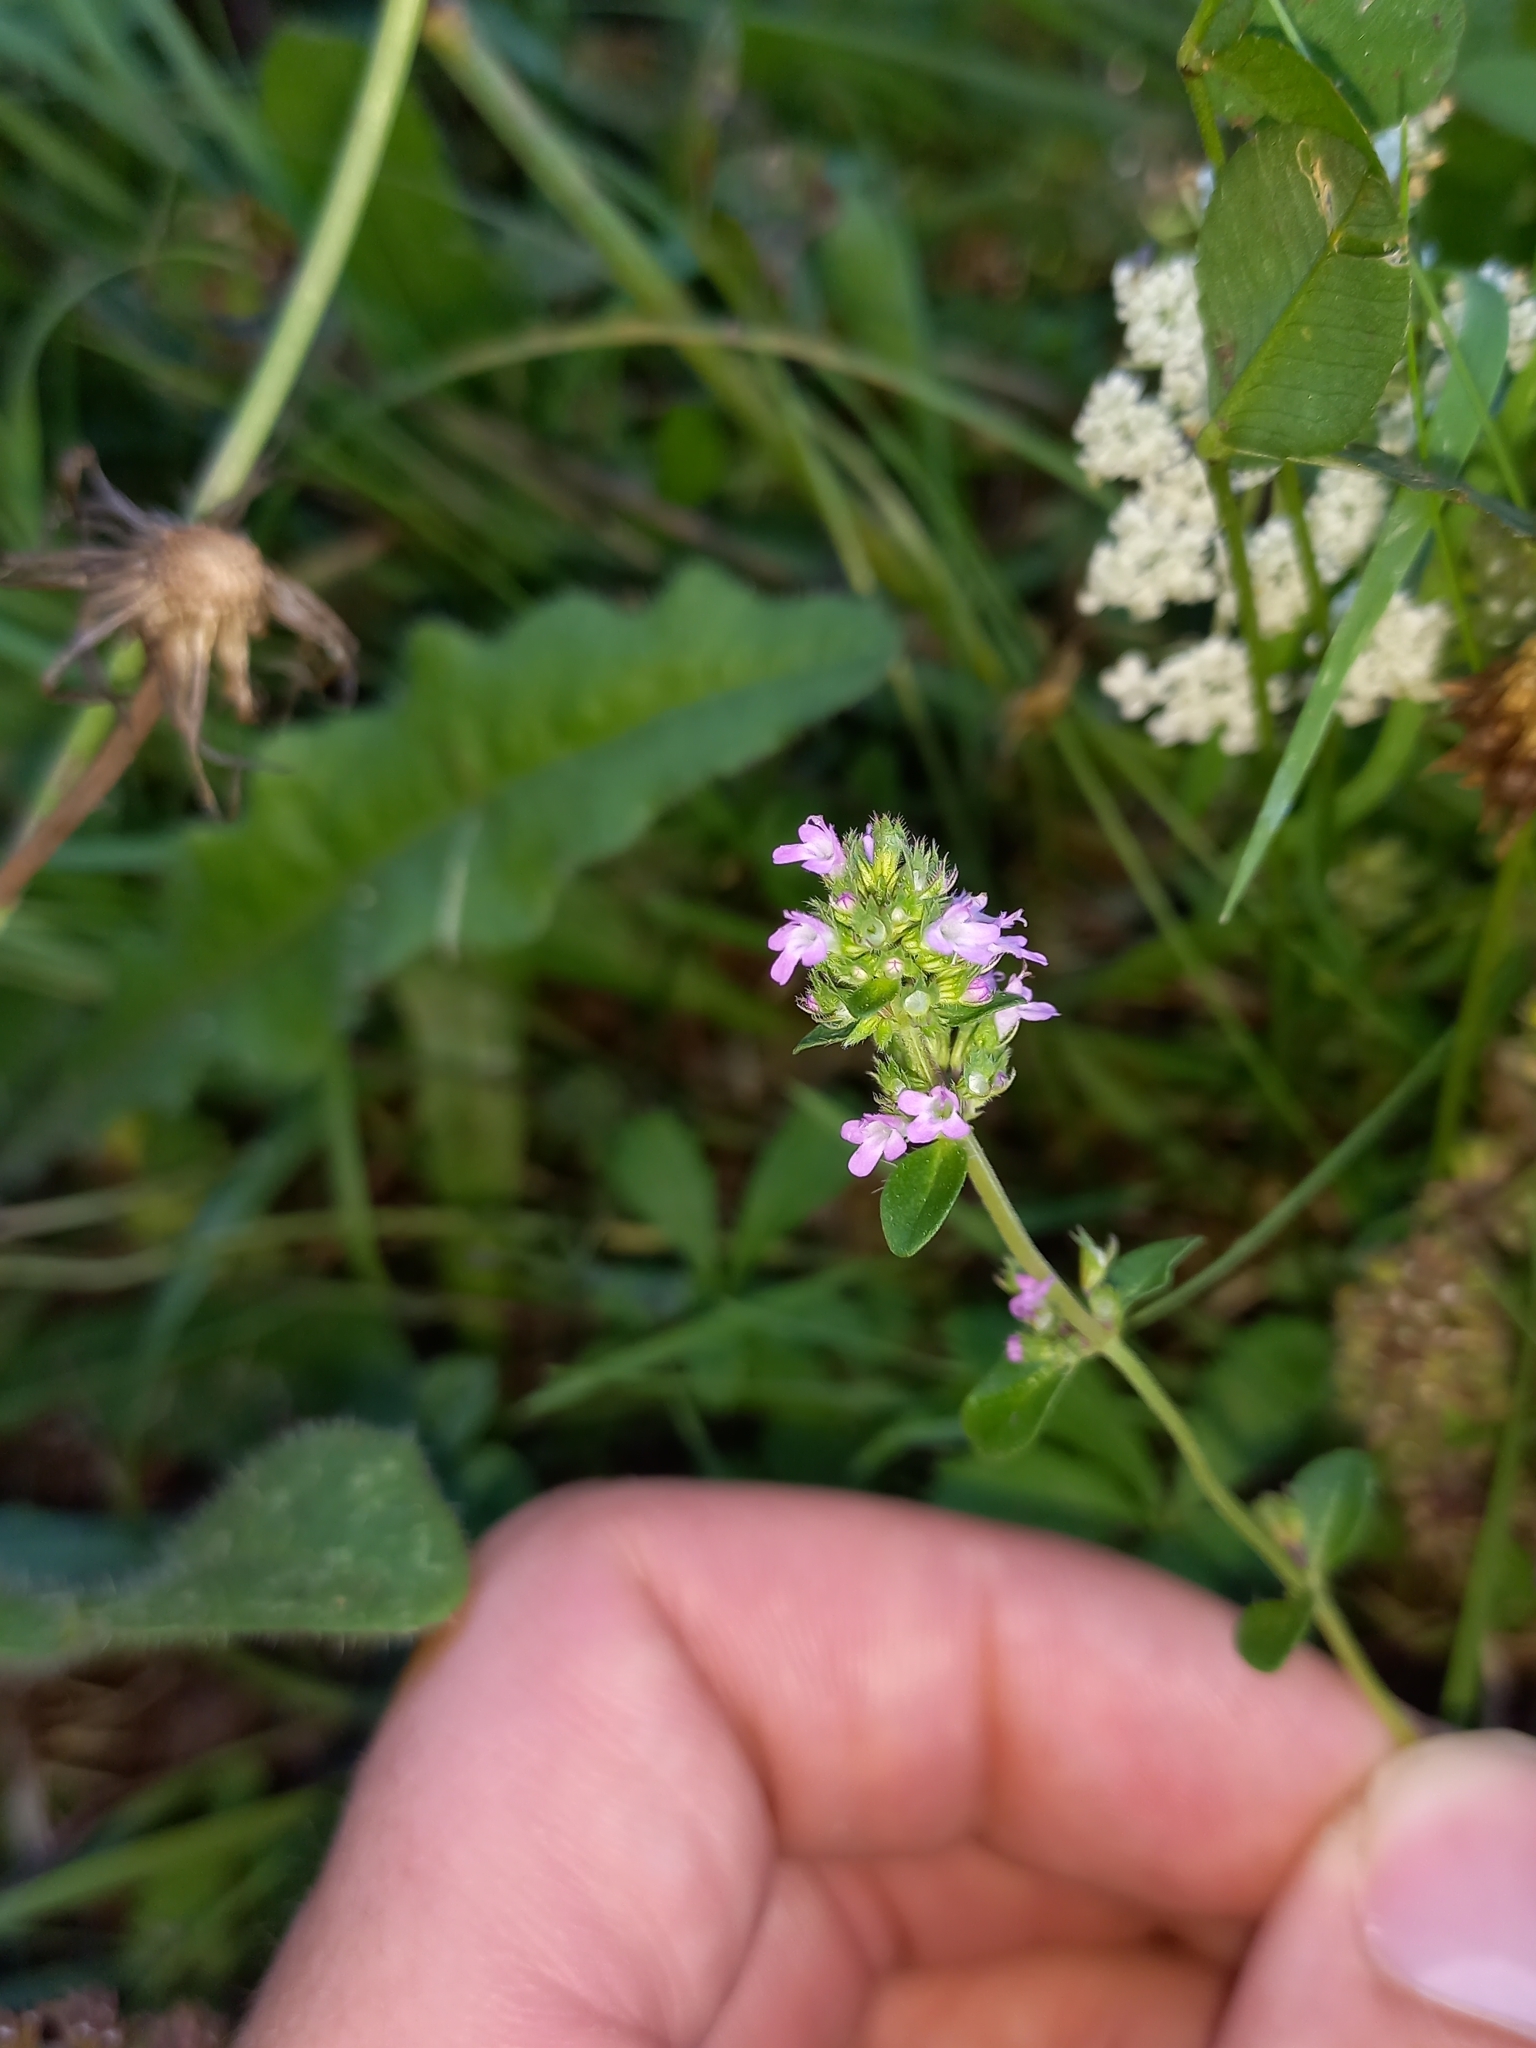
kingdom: Plantae
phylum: Tracheophyta
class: Magnoliopsida
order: Lamiales
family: Lamiaceae
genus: Thymus
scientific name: Thymus pulegioides
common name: Large thyme
